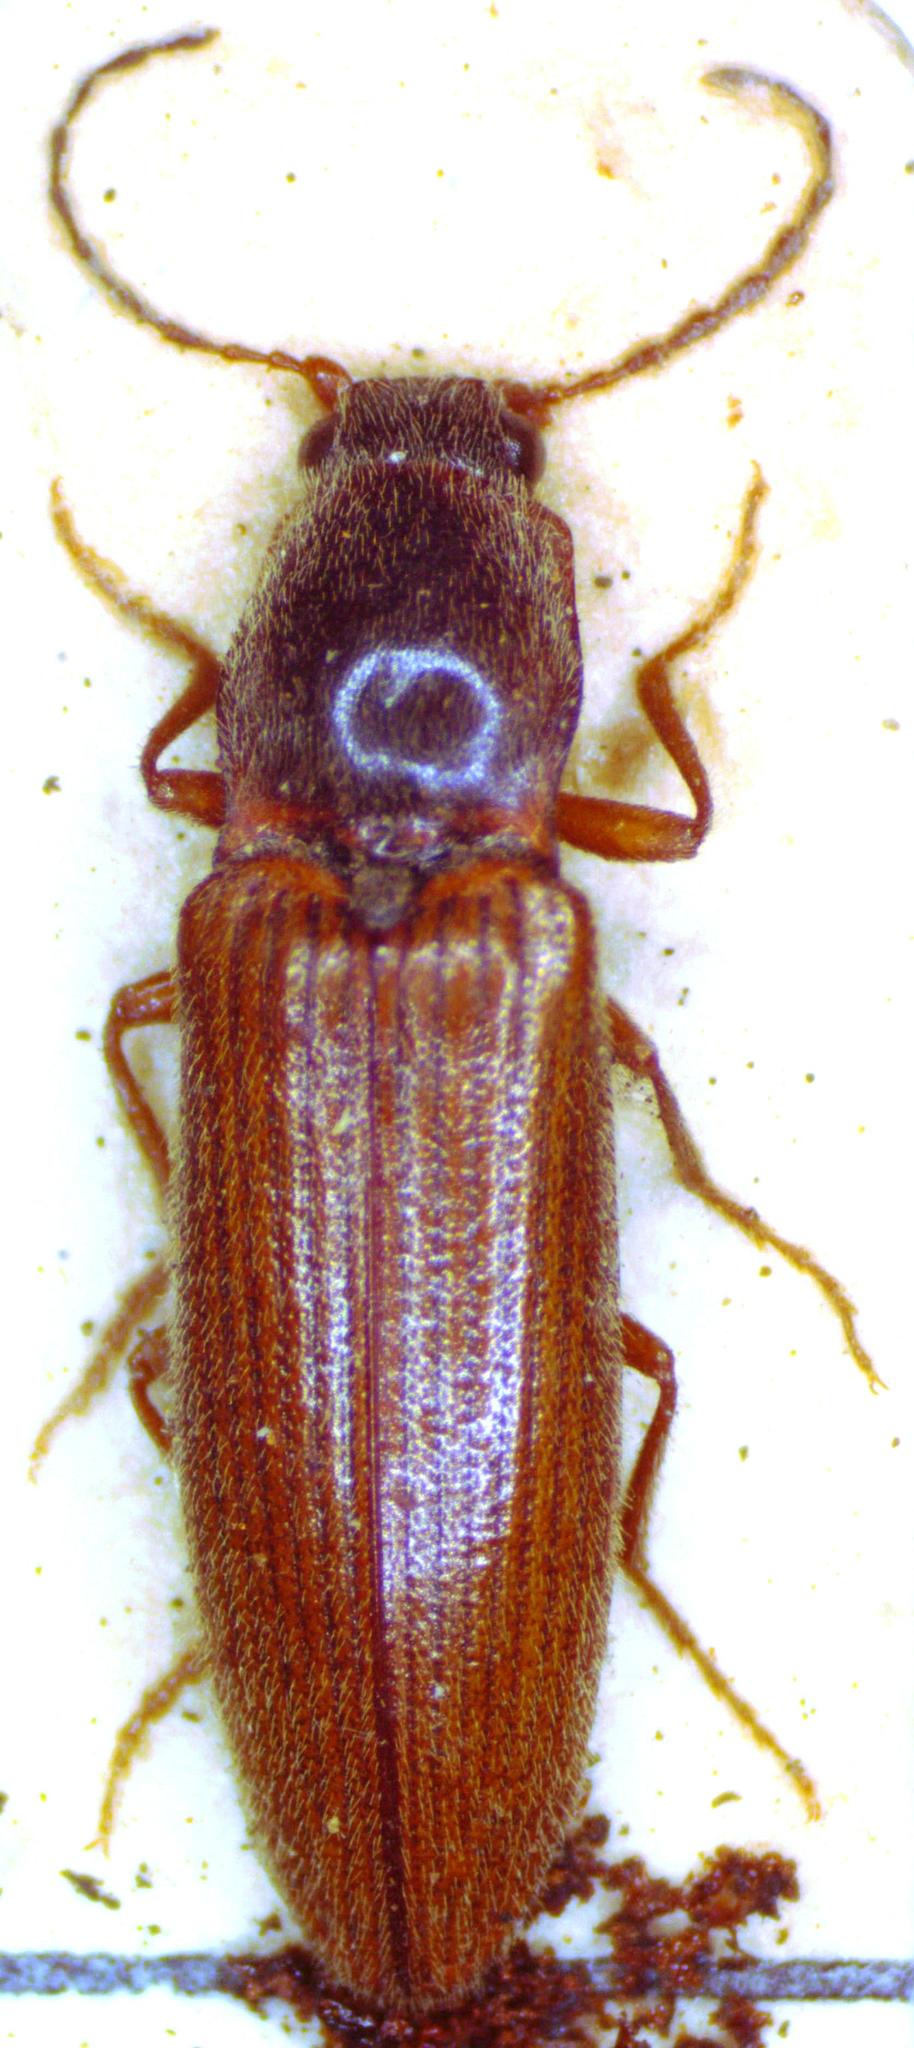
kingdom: Animalia
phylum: Arthropoda
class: Insecta
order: Coleoptera
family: Elateridae
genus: Athous
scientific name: Athous subfuscus
